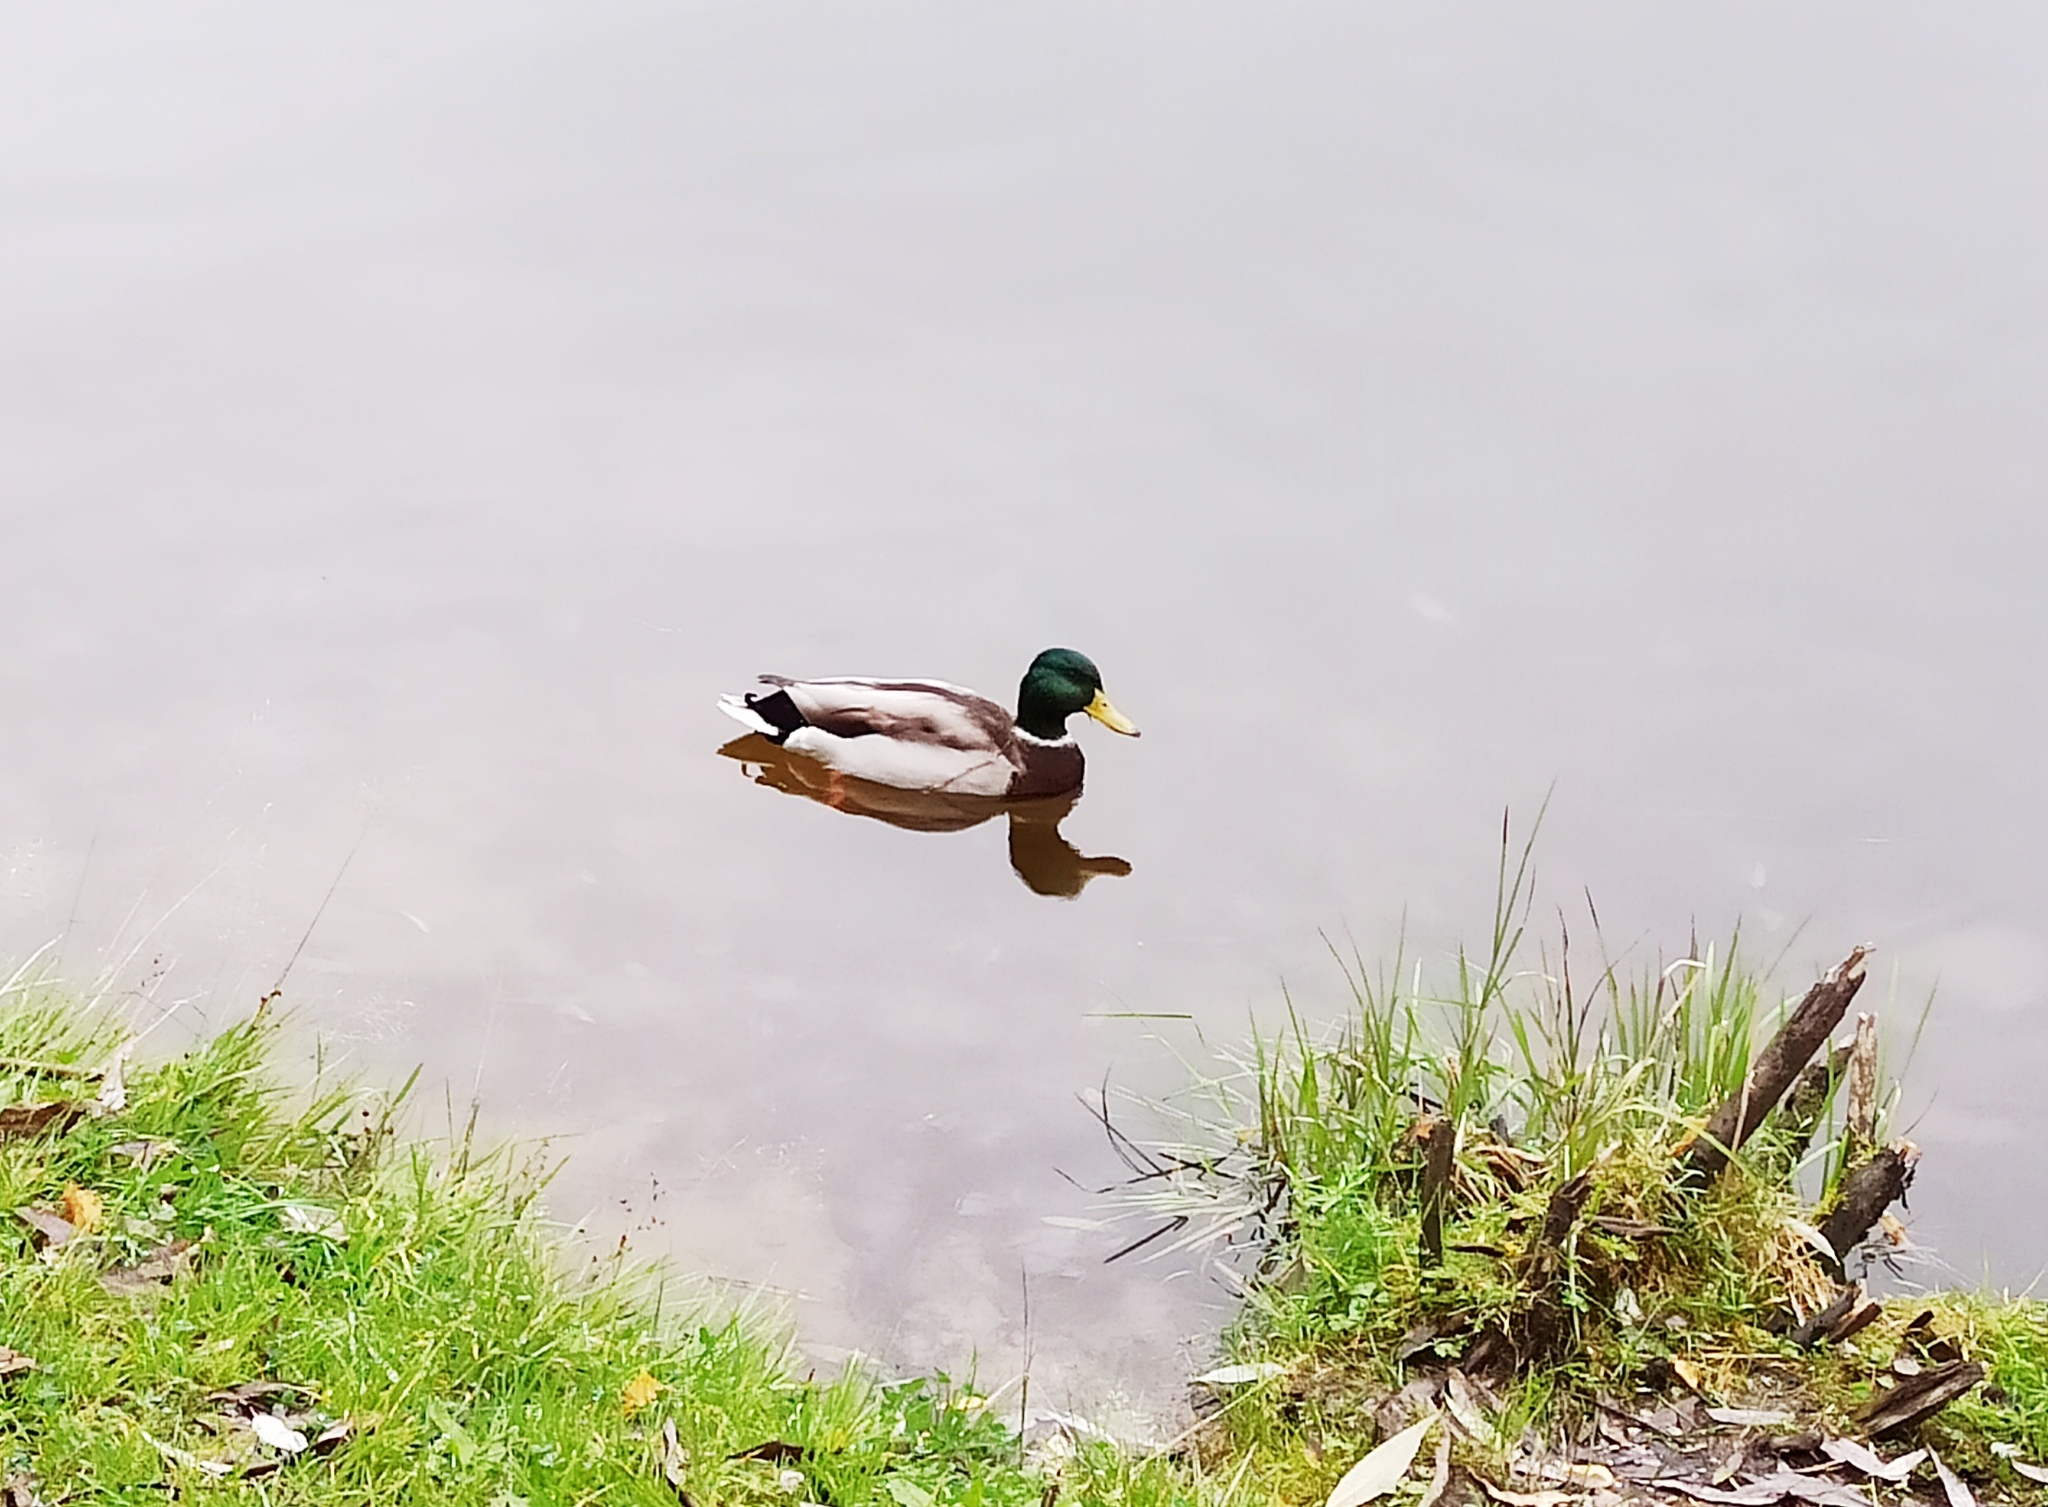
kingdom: Animalia
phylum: Chordata
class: Aves
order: Anseriformes
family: Anatidae
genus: Anas
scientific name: Anas platyrhynchos
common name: Mallard
